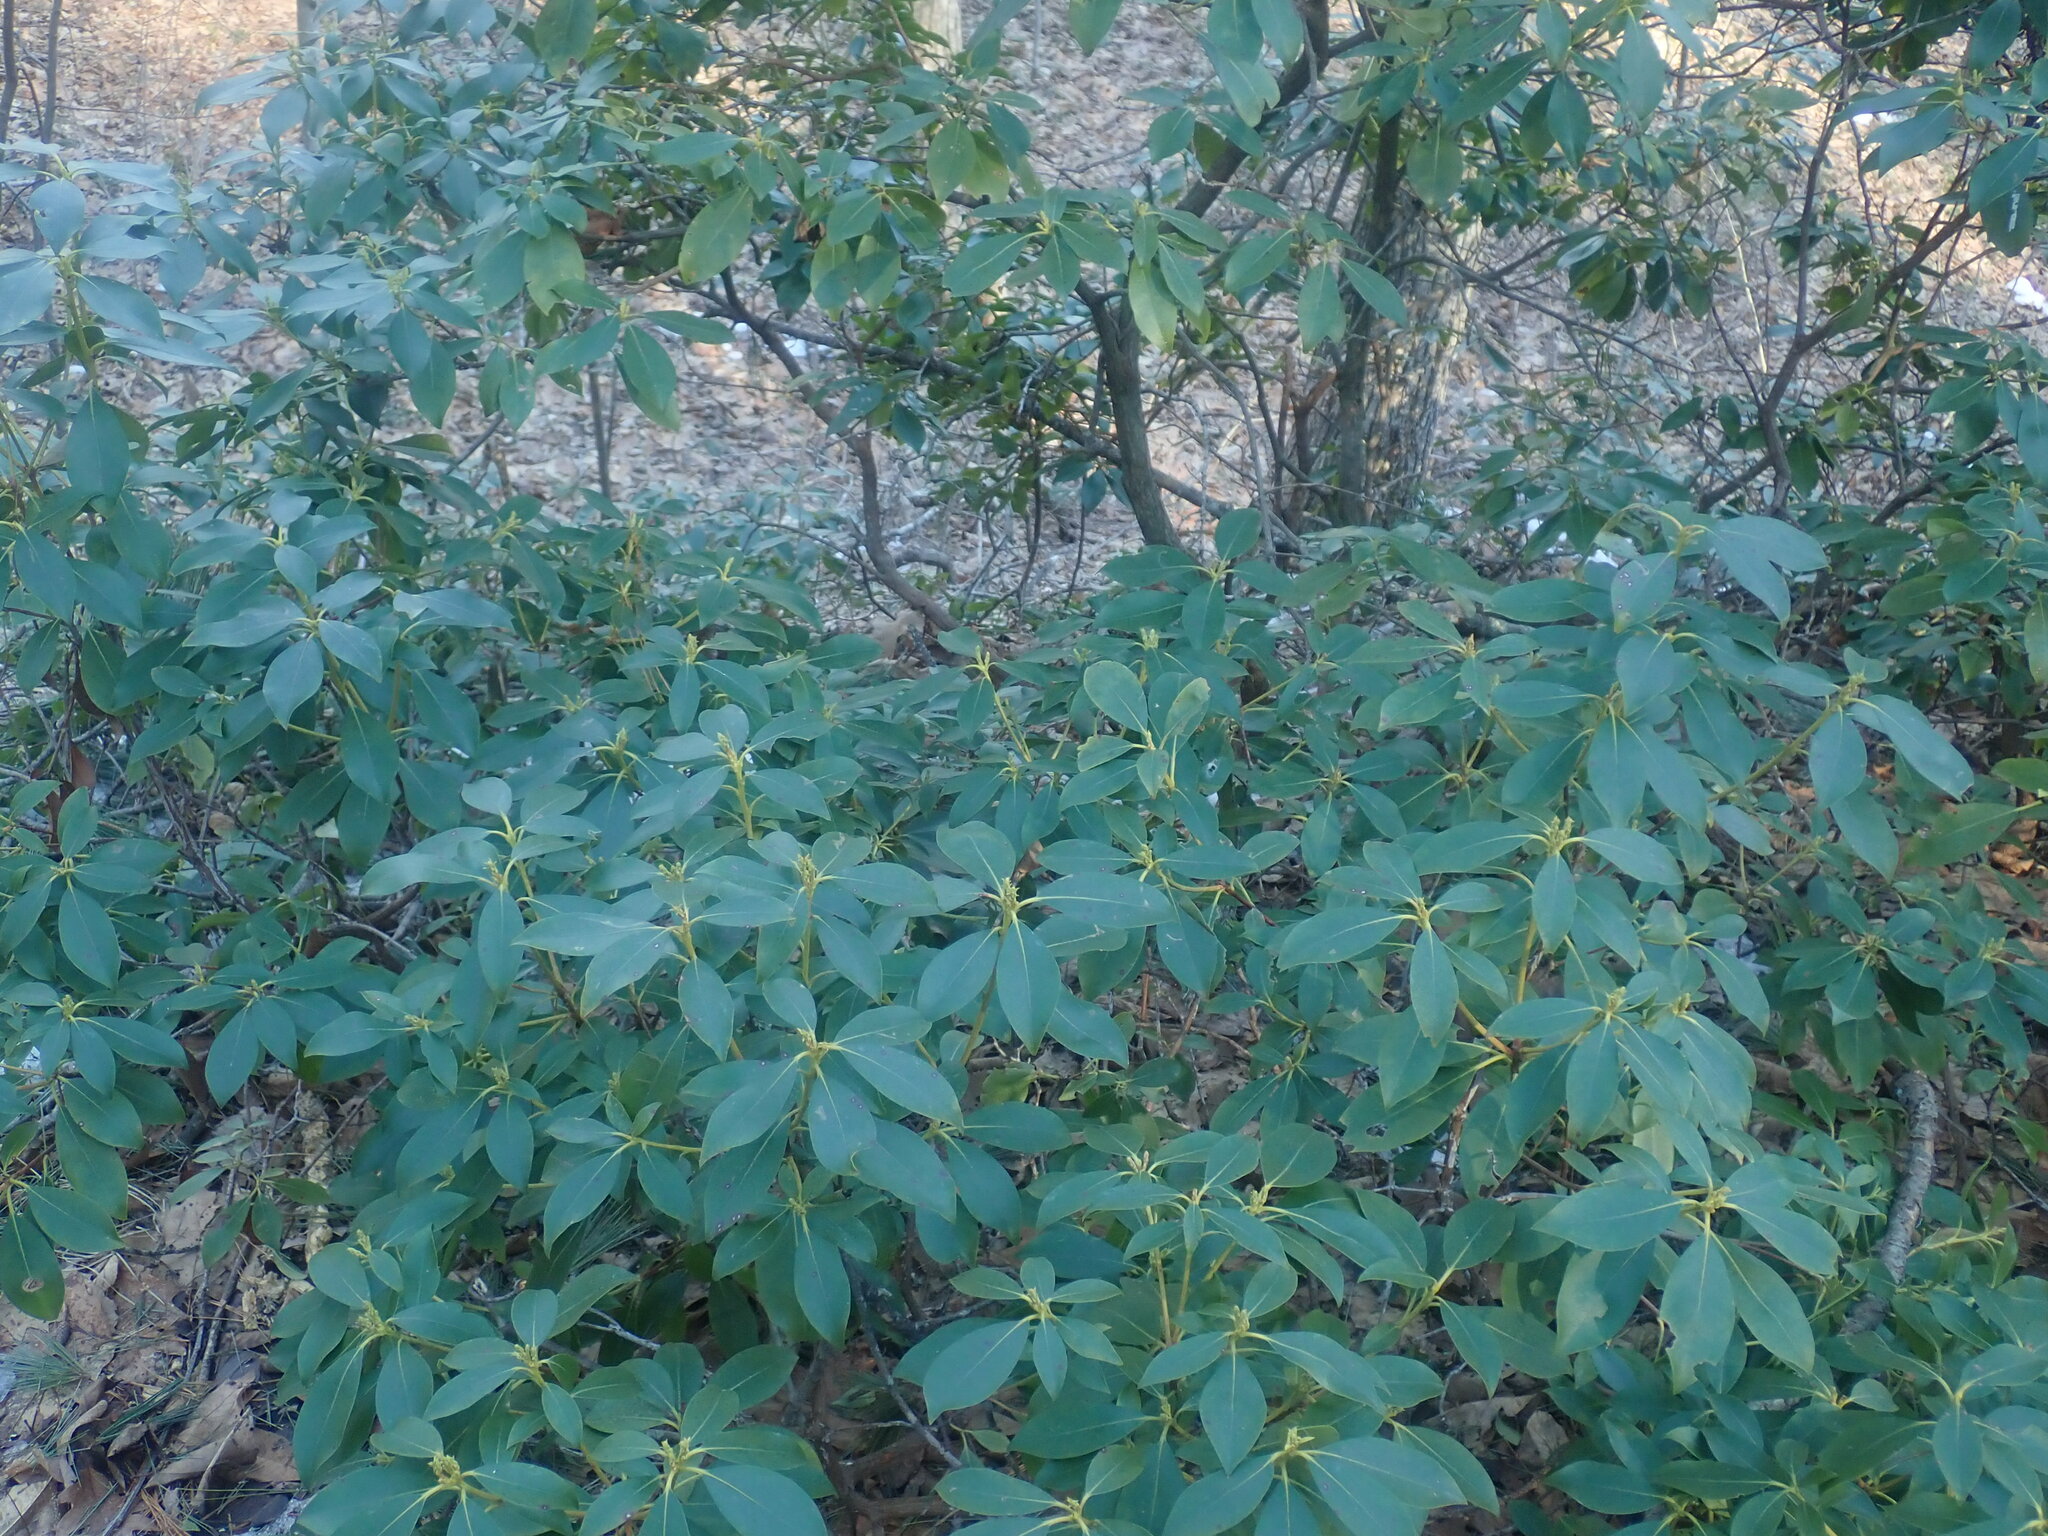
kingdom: Plantae
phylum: Tracheophyta
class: Magnoliopsida
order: Ericales
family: Ericaceae
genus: Kalmia
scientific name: Kalmia latifolia
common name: Mountain-laurel
